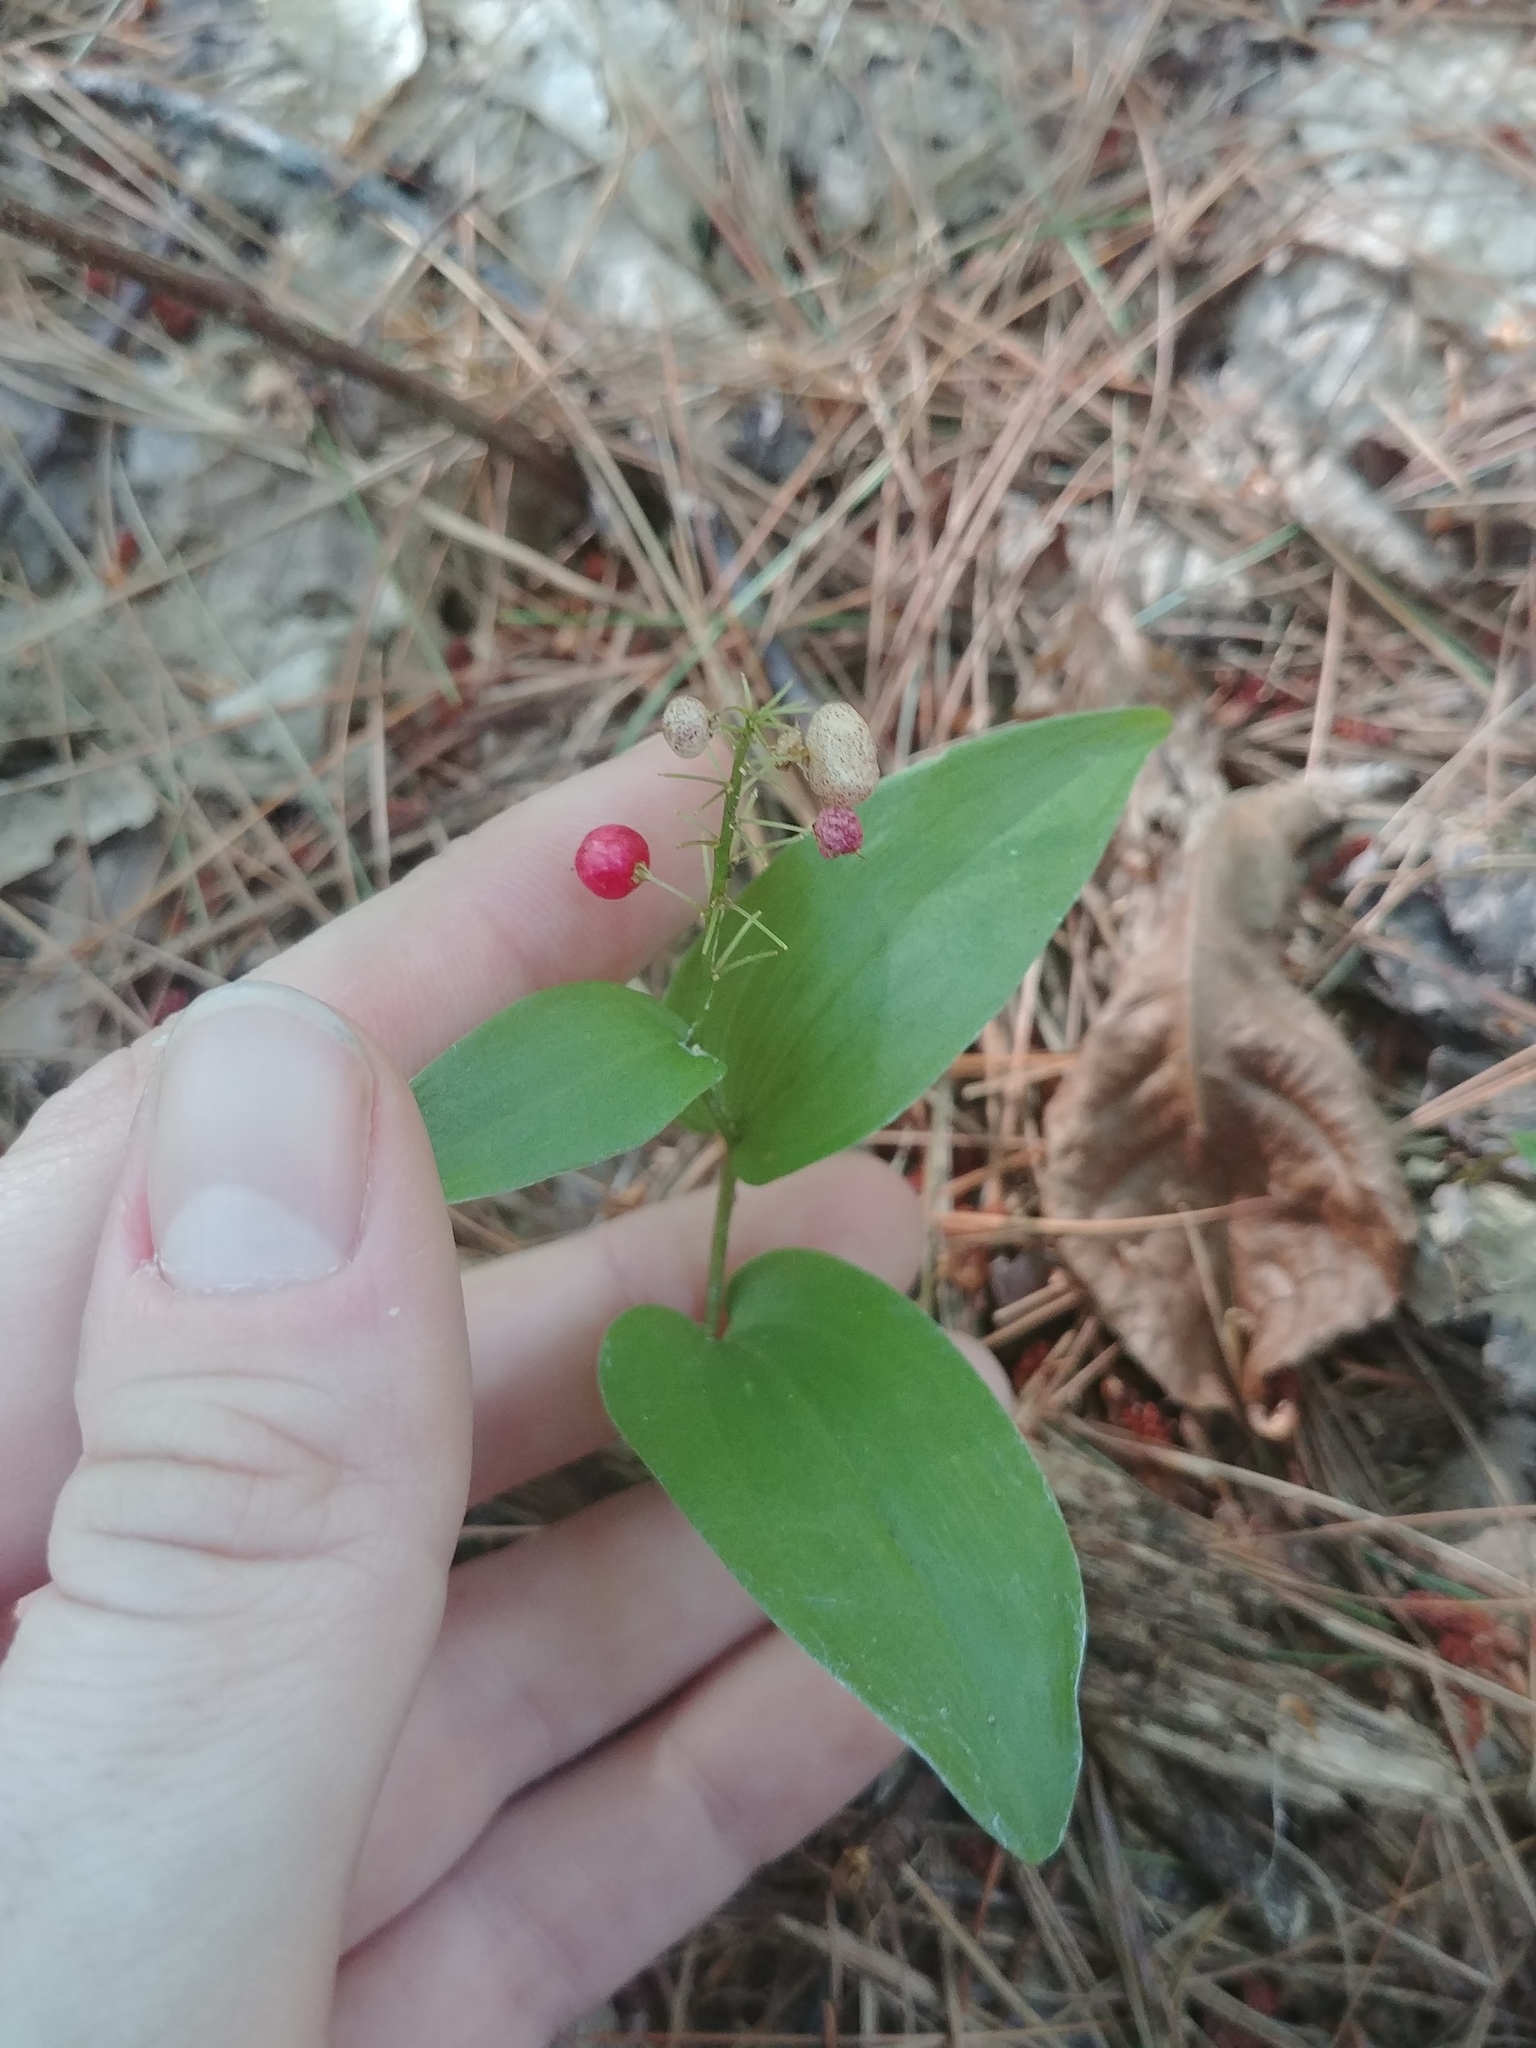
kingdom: Plantae
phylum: Tracheophyta
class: Liliopsida
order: Asparagales
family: Asparagaceae
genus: Maianthemum
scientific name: Maianthemum canadense
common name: False lily-of-the-valley
